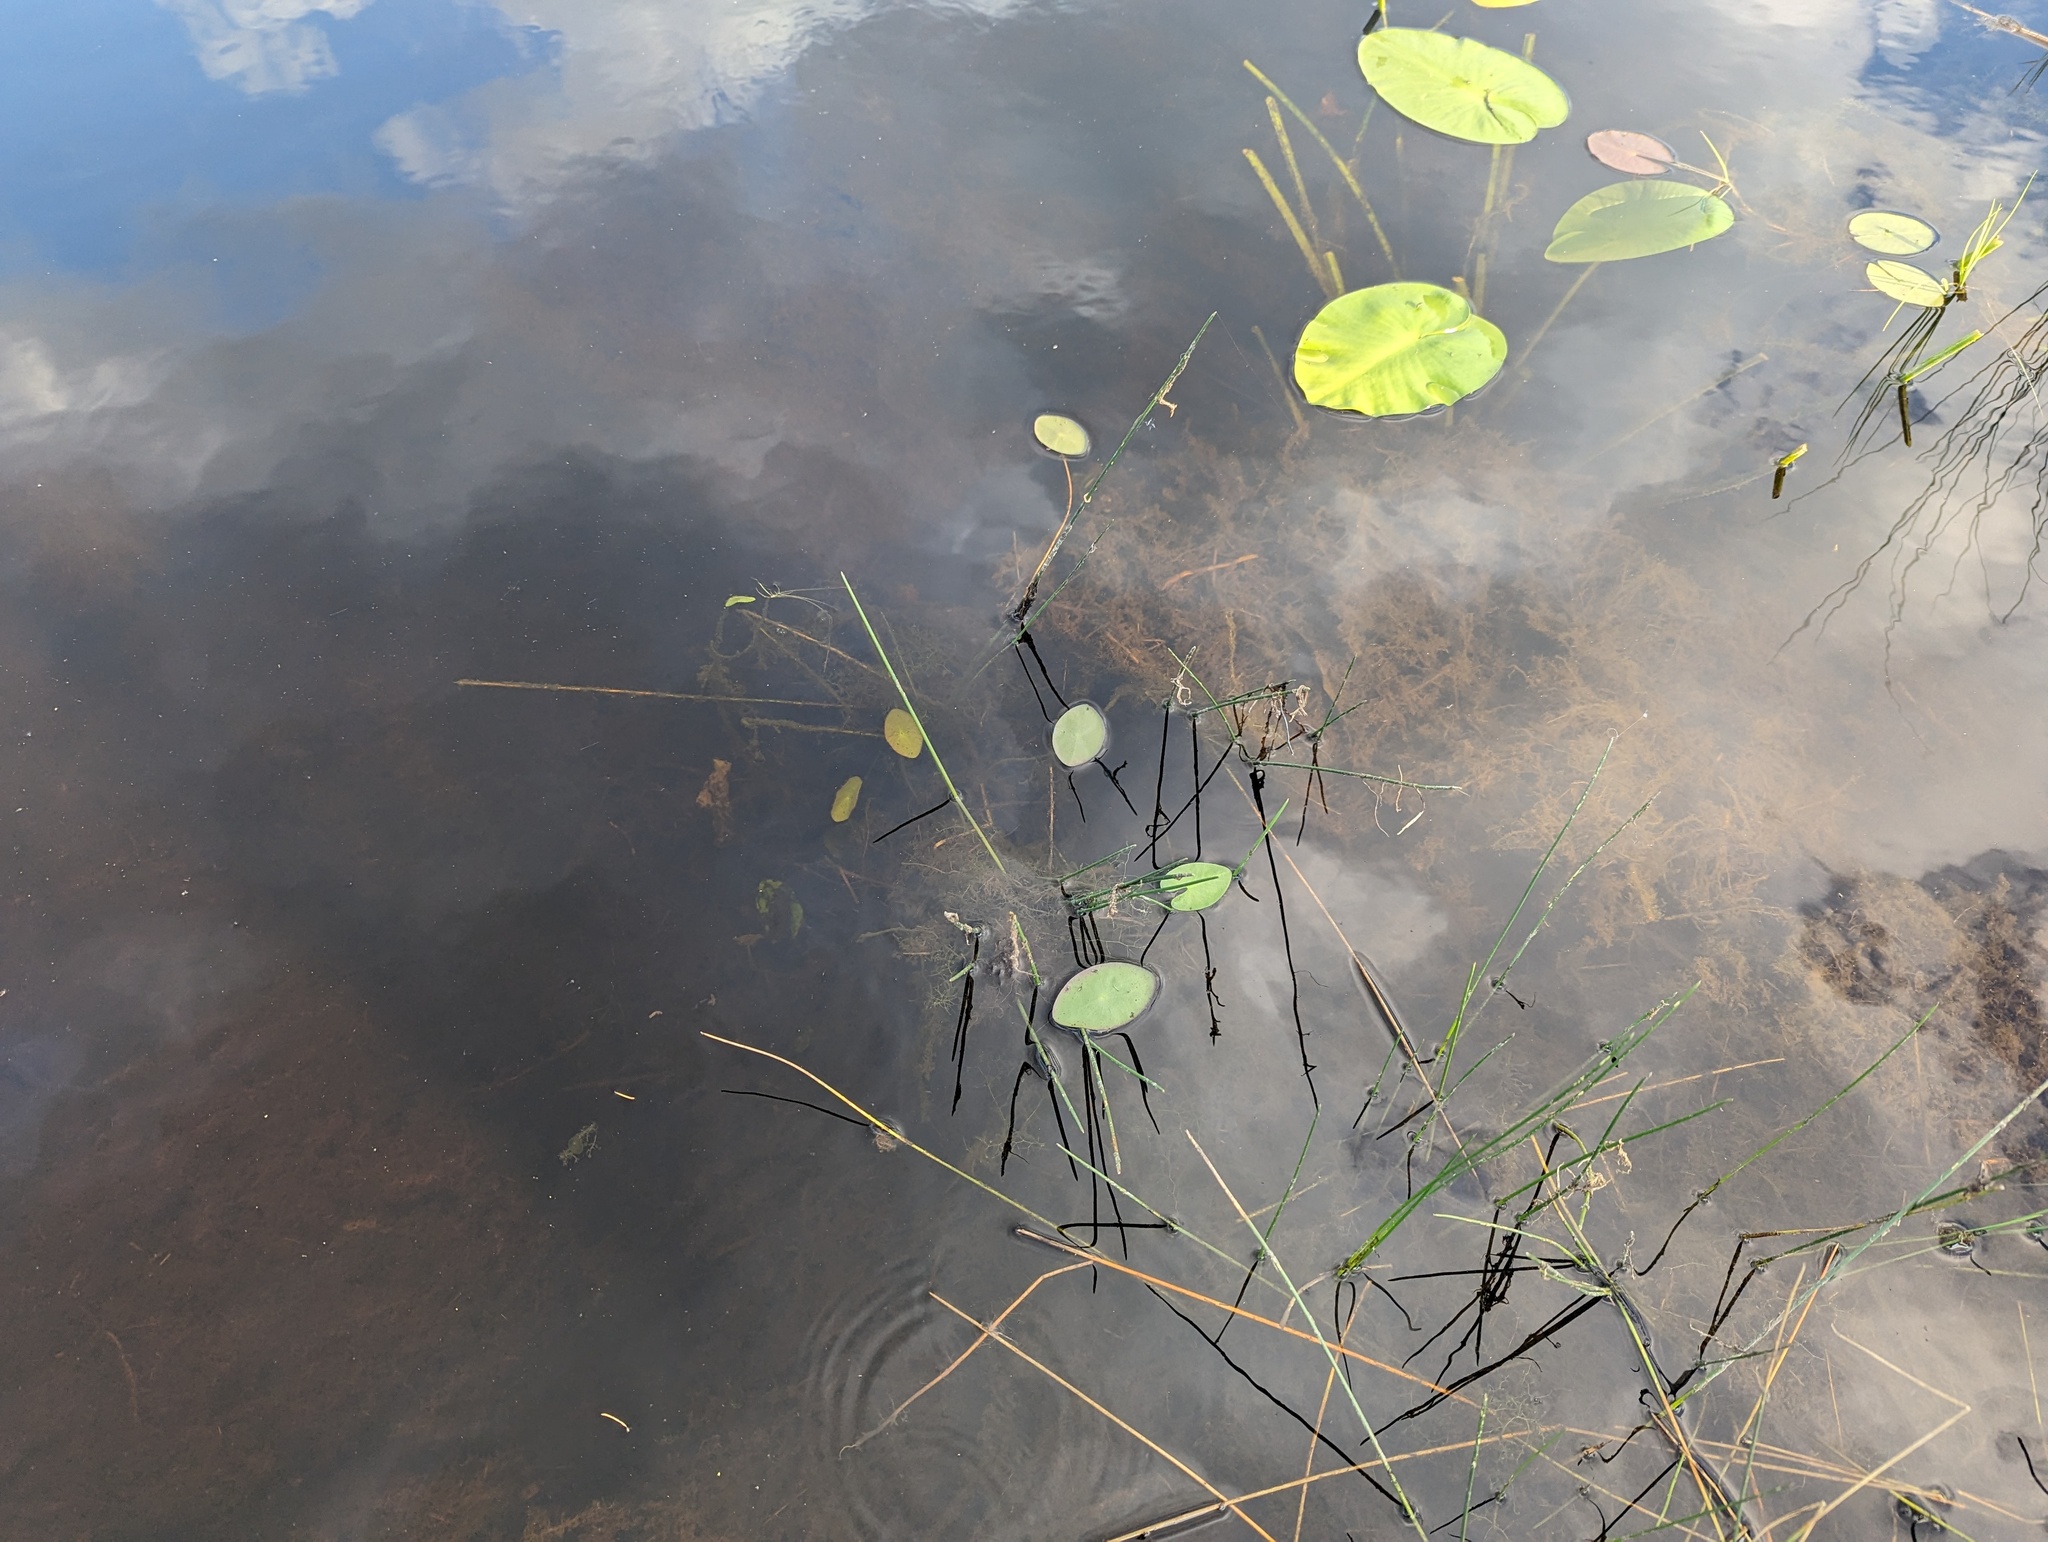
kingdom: Plantae
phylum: Tracheophyta
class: Magnoliopsida
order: Nymphaeales
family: Cabombaceae
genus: Brasenia
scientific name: Brasenia schreberi
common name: Water-shield
